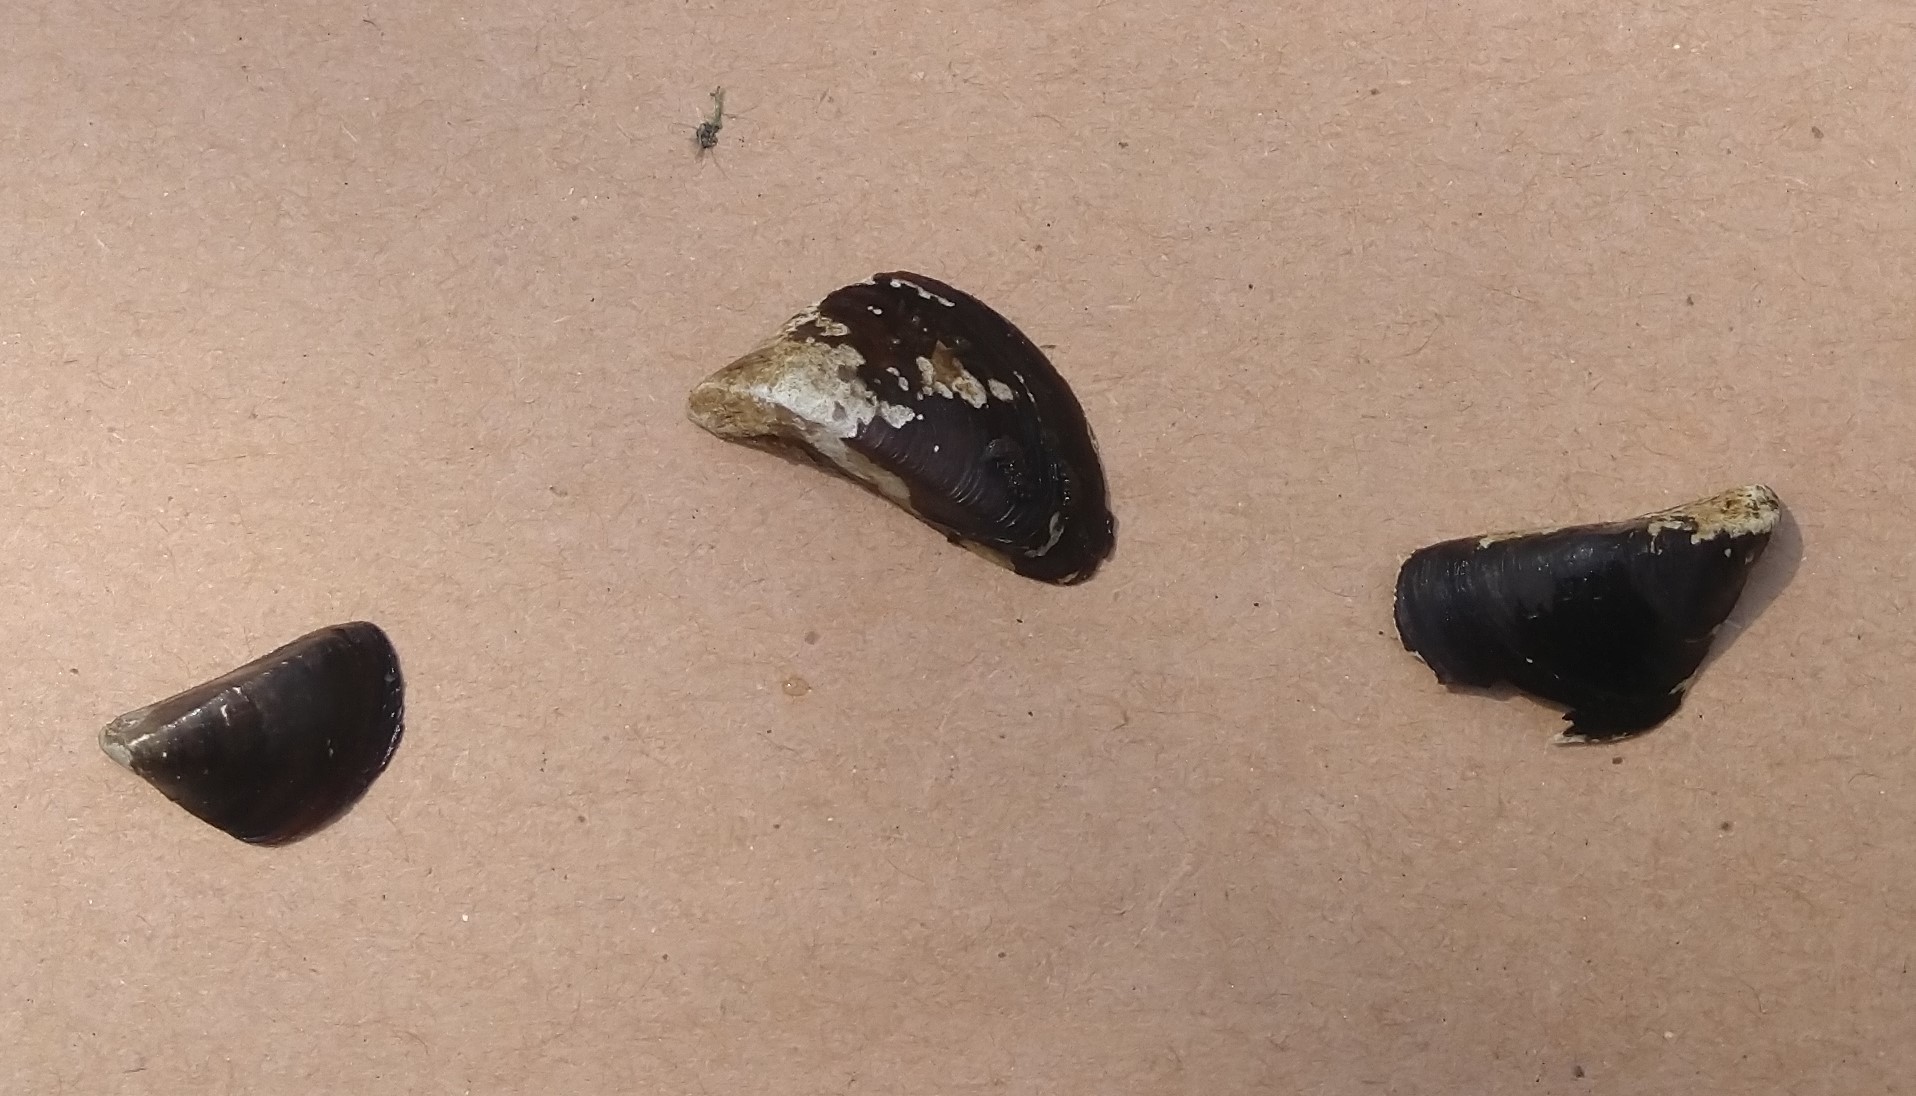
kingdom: Animalia
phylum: Mollusca
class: Bivalvia
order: Myida
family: Dreissenidae
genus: Dreissena
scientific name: Dreissena polymorpha
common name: Zebra mussel
